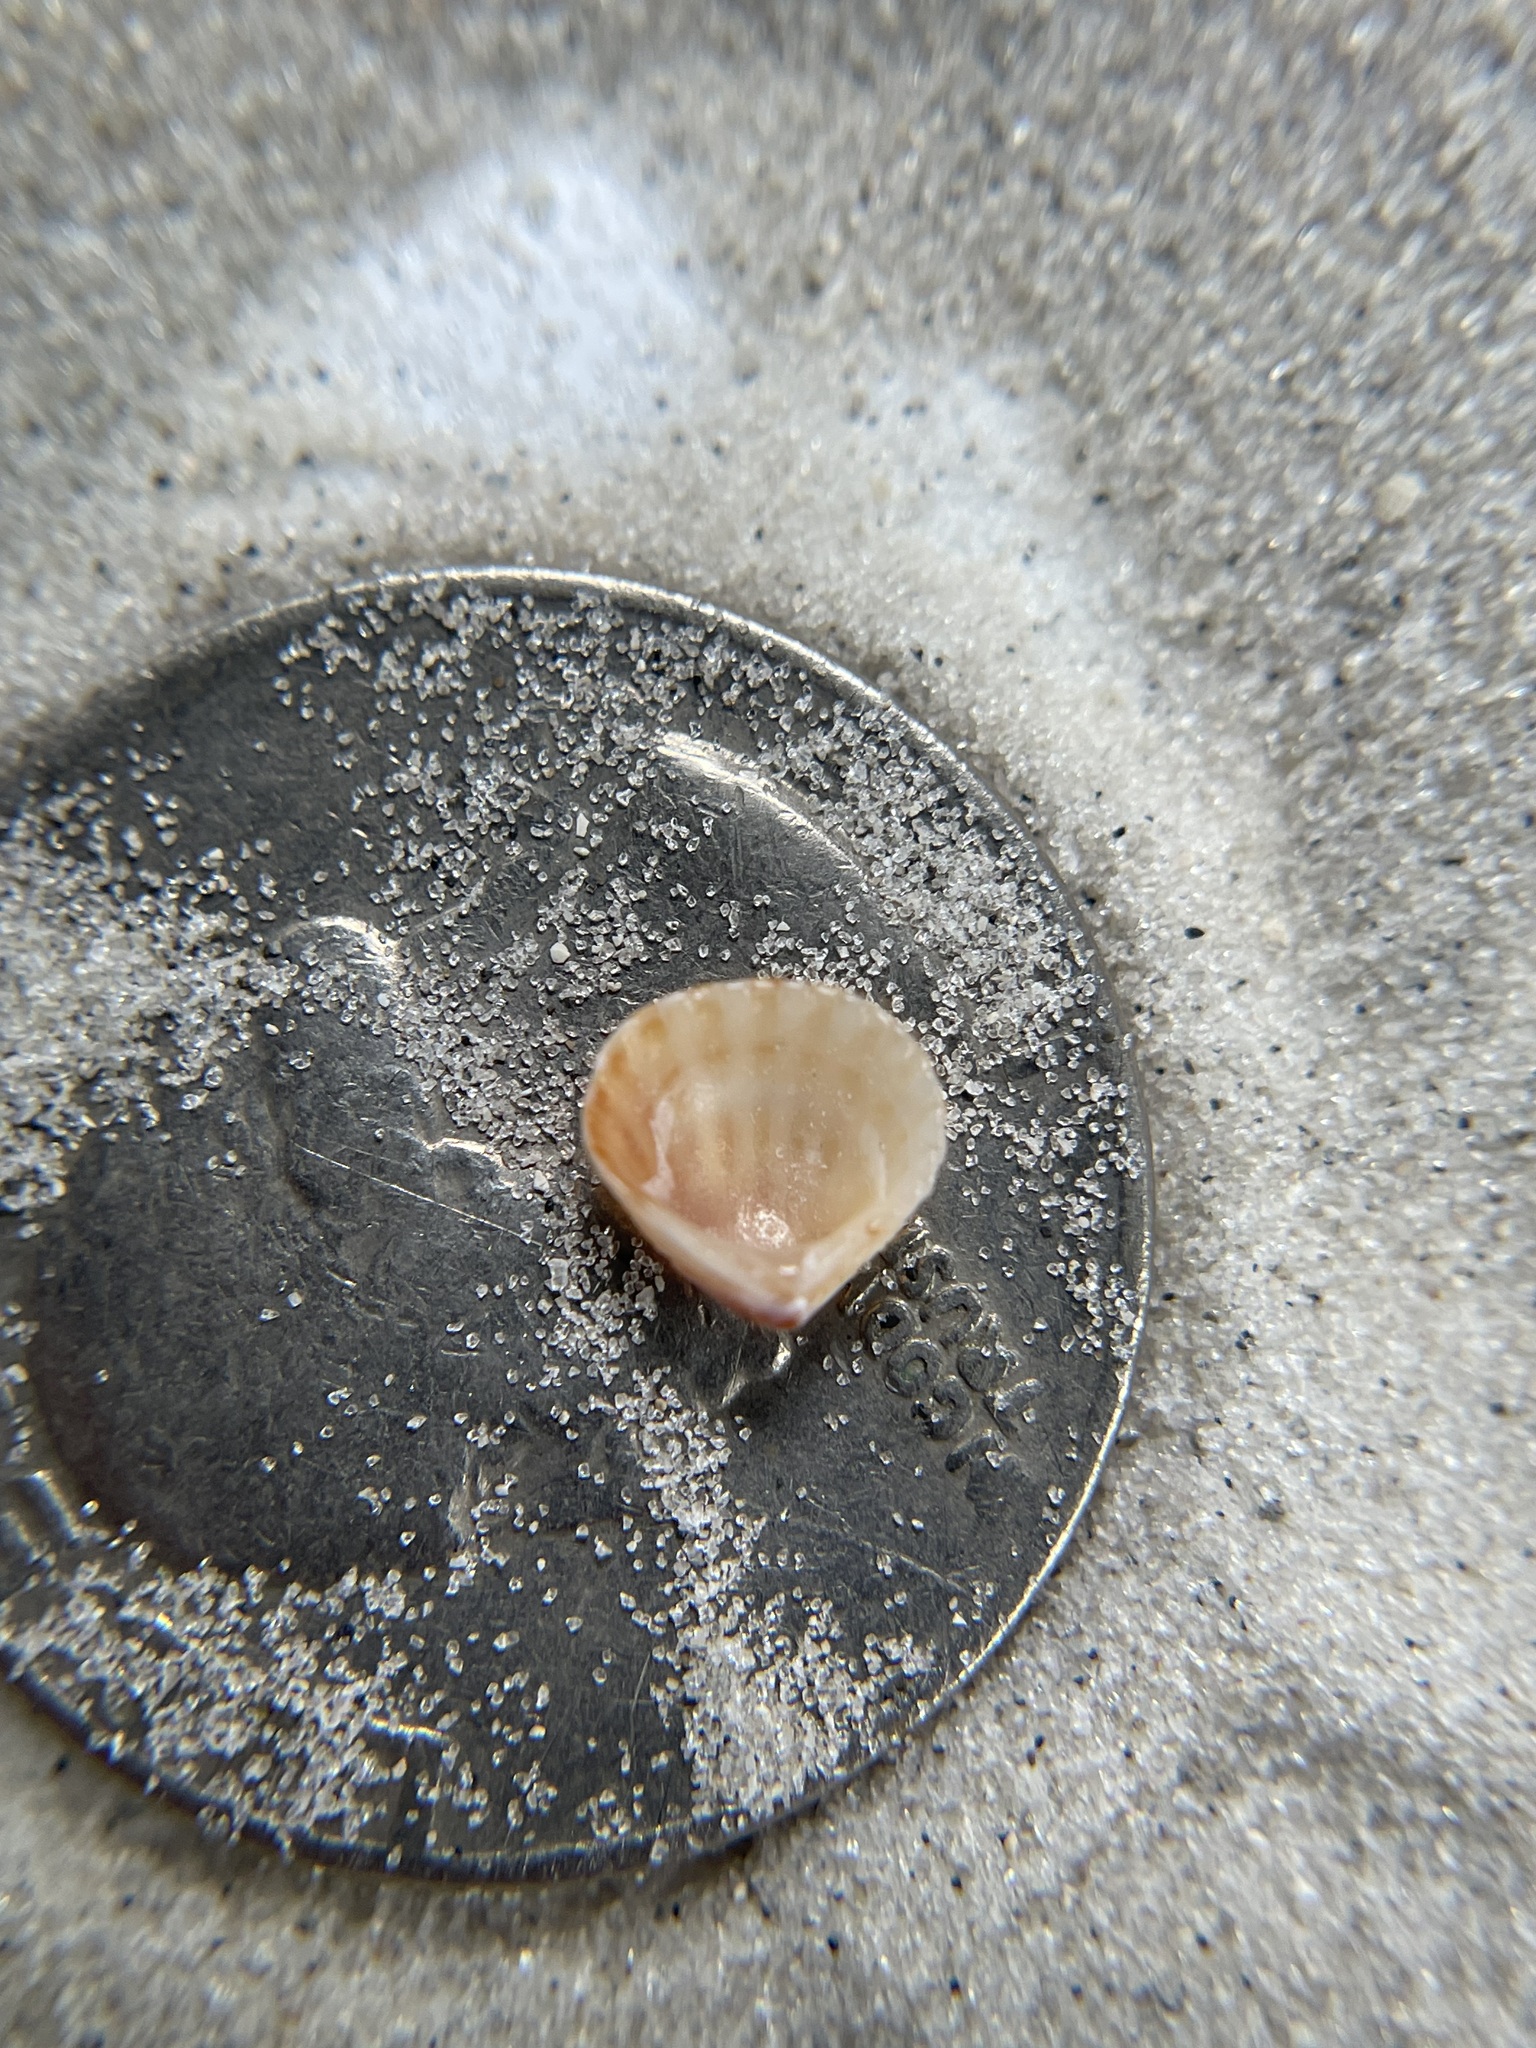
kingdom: Animalia
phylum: Mollusca
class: Bivalvia
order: Carditida
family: Carditidae
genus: Pleuromeris
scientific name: Pleuromeris tridentata
